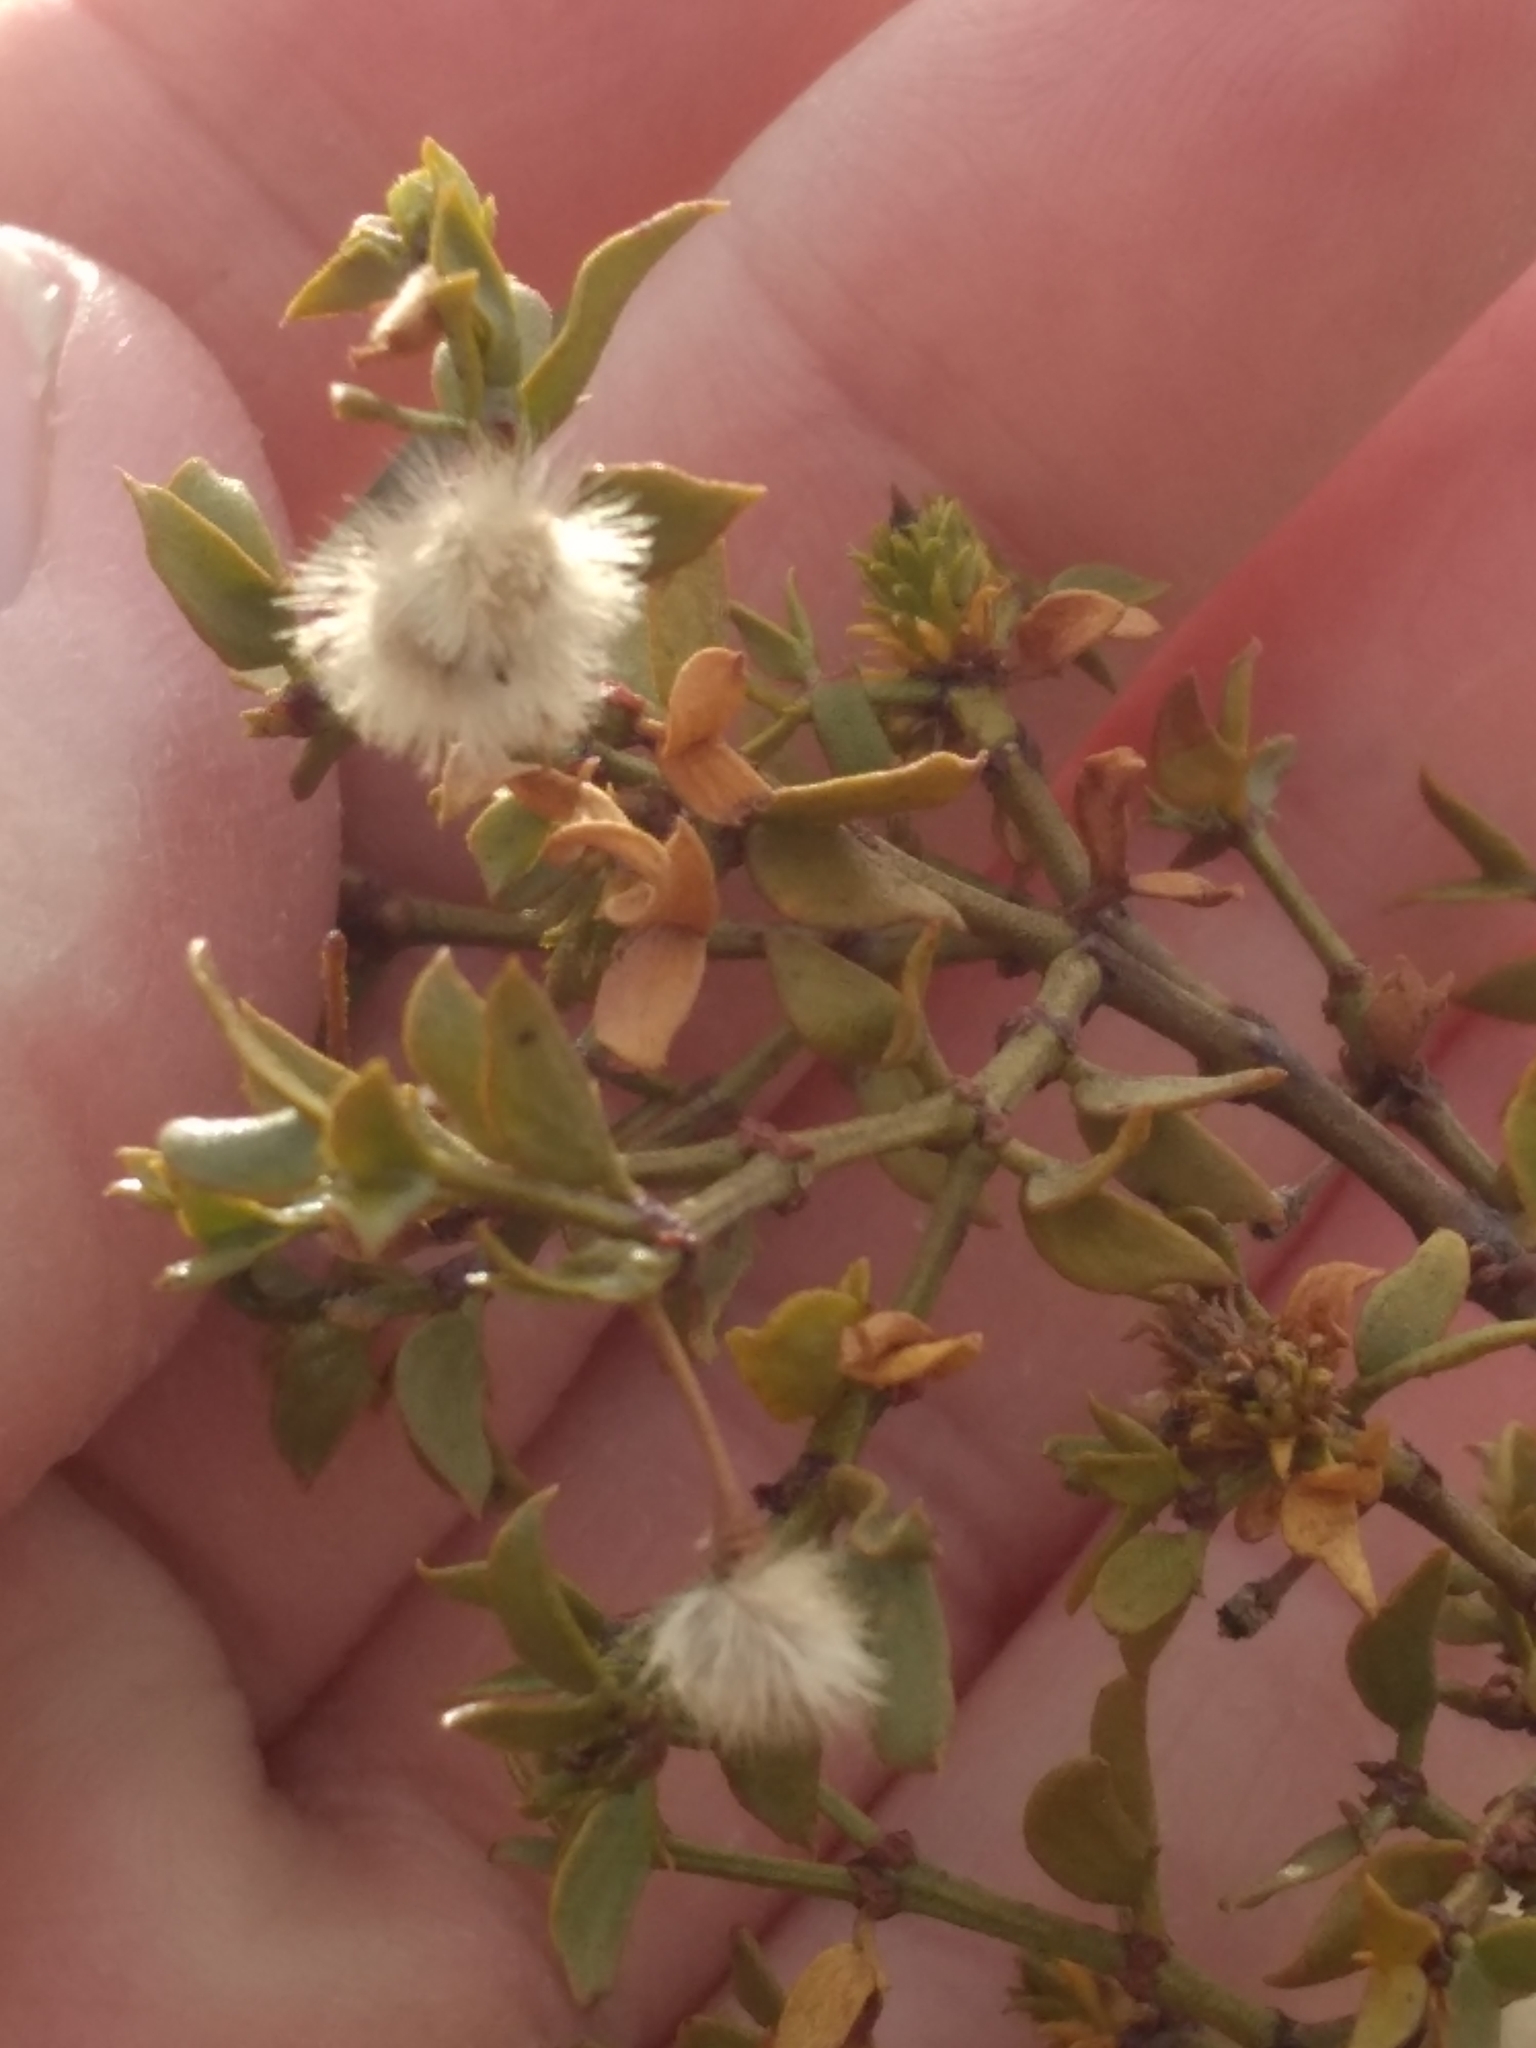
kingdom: Plantae
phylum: Tracheophyta
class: Magnoliopsida
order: Zygophyllales
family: Zygophyllaceae
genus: Larrea
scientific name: Larrea tridentata
